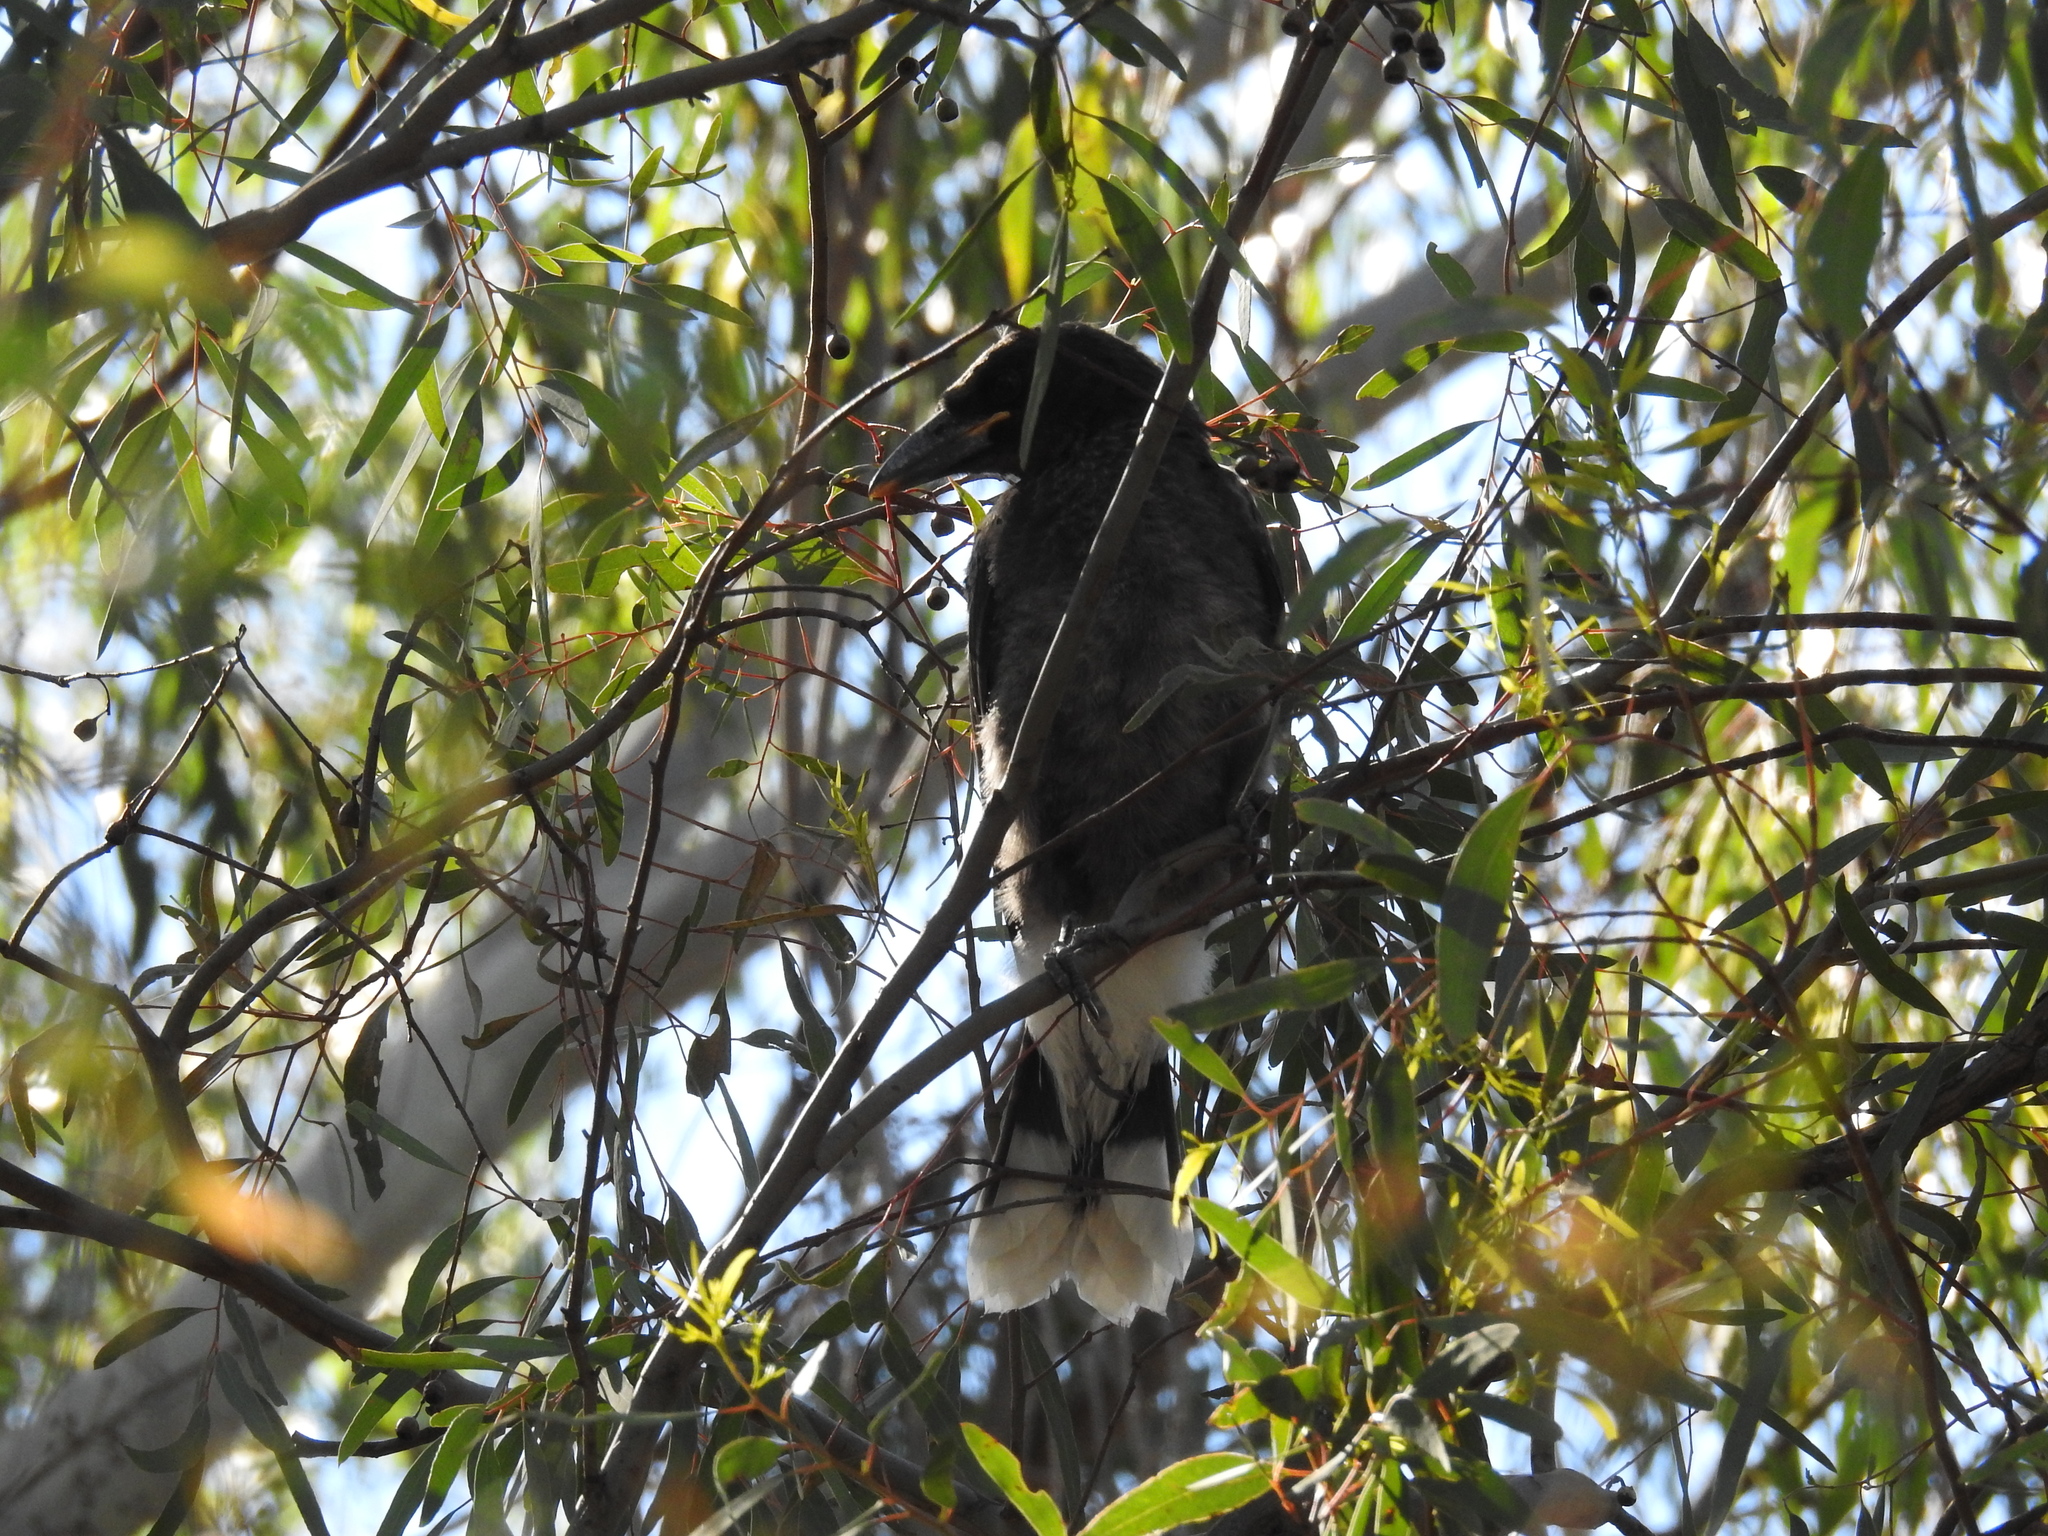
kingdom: Animalia
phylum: Chordata
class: Aves
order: Passeriformes
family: Cracticidae
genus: Strepera
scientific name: Strepera graculina
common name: Pied currawong
